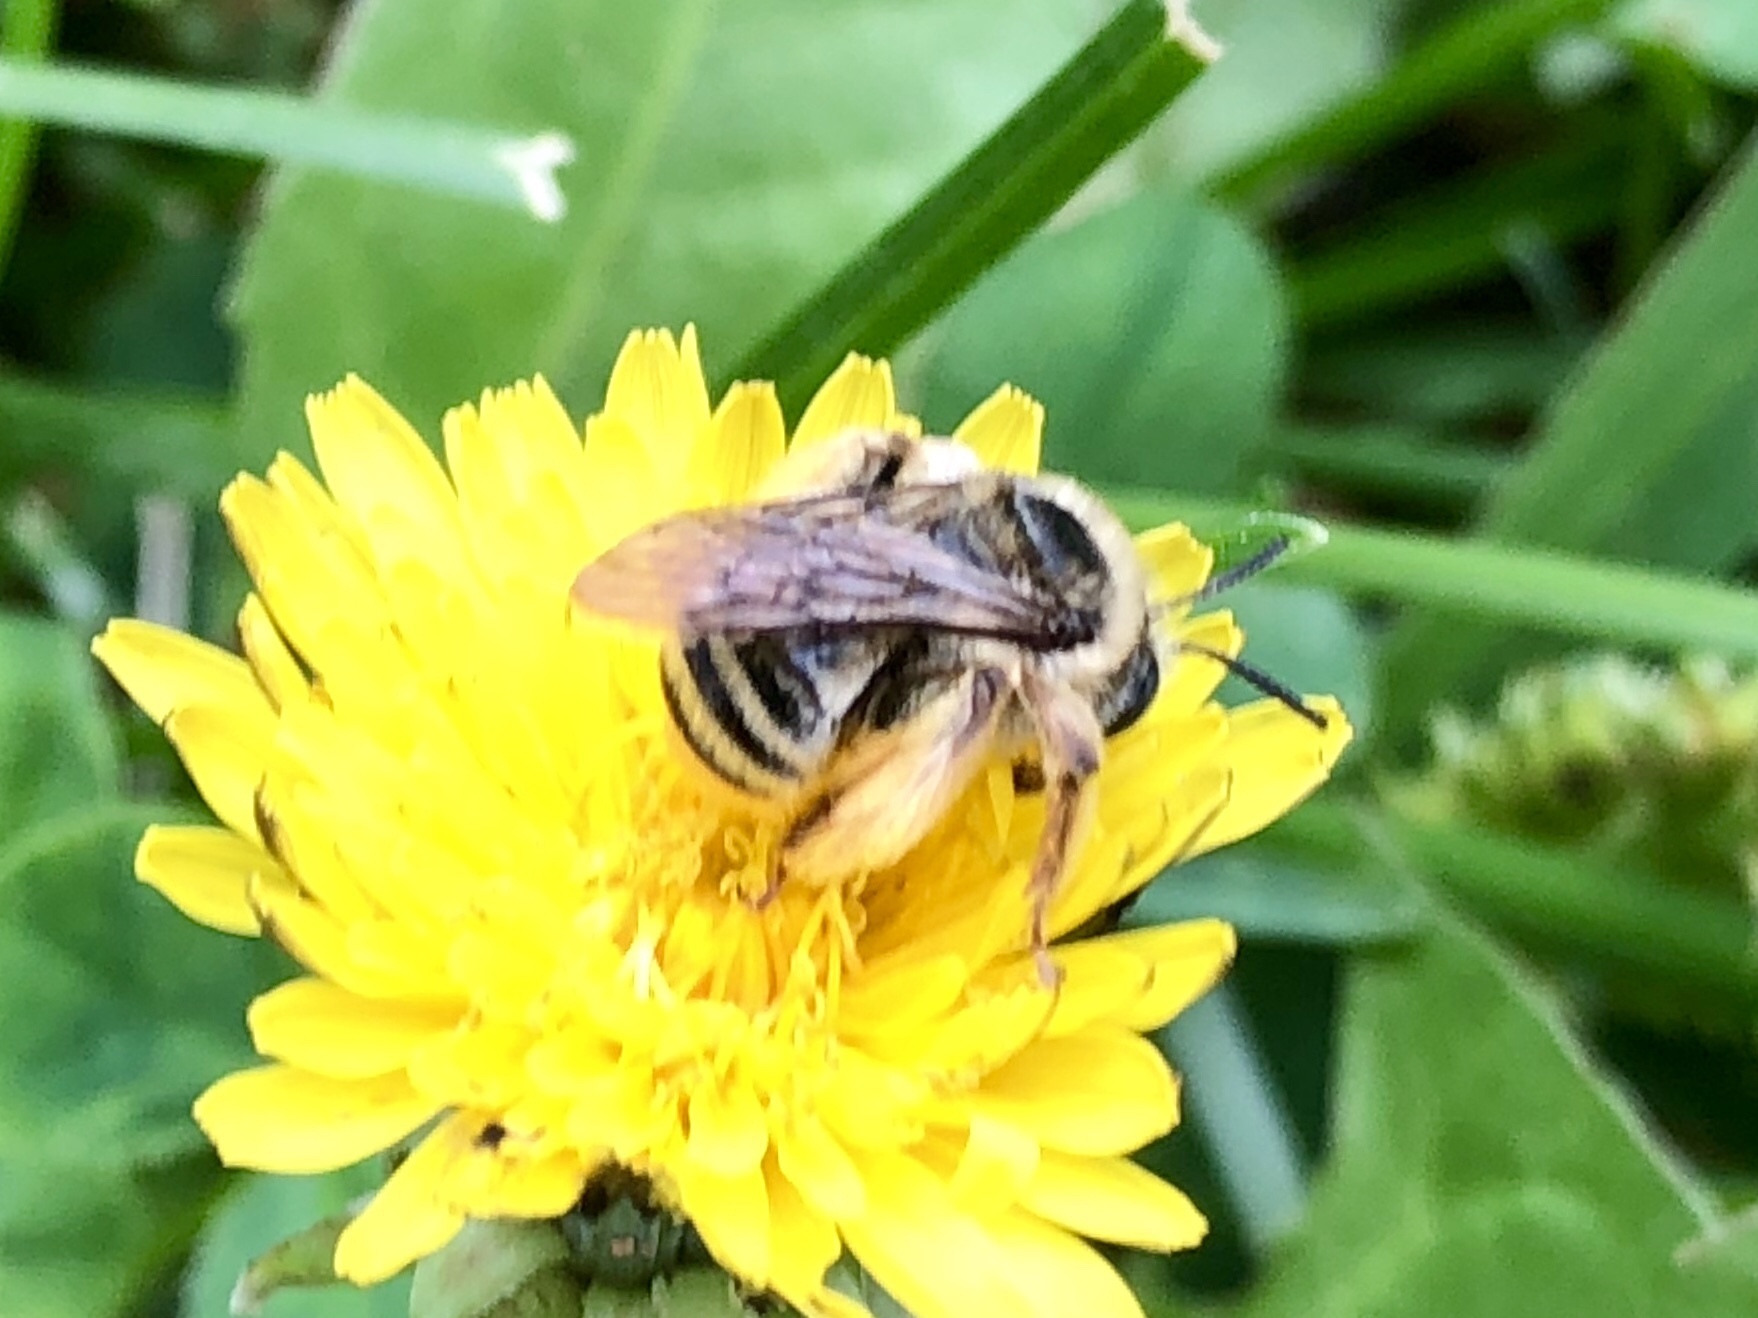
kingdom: Animalia
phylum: Arthropoda
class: Insecta
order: Hymenoptera
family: Apidae
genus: Melissodes
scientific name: Melissodes
